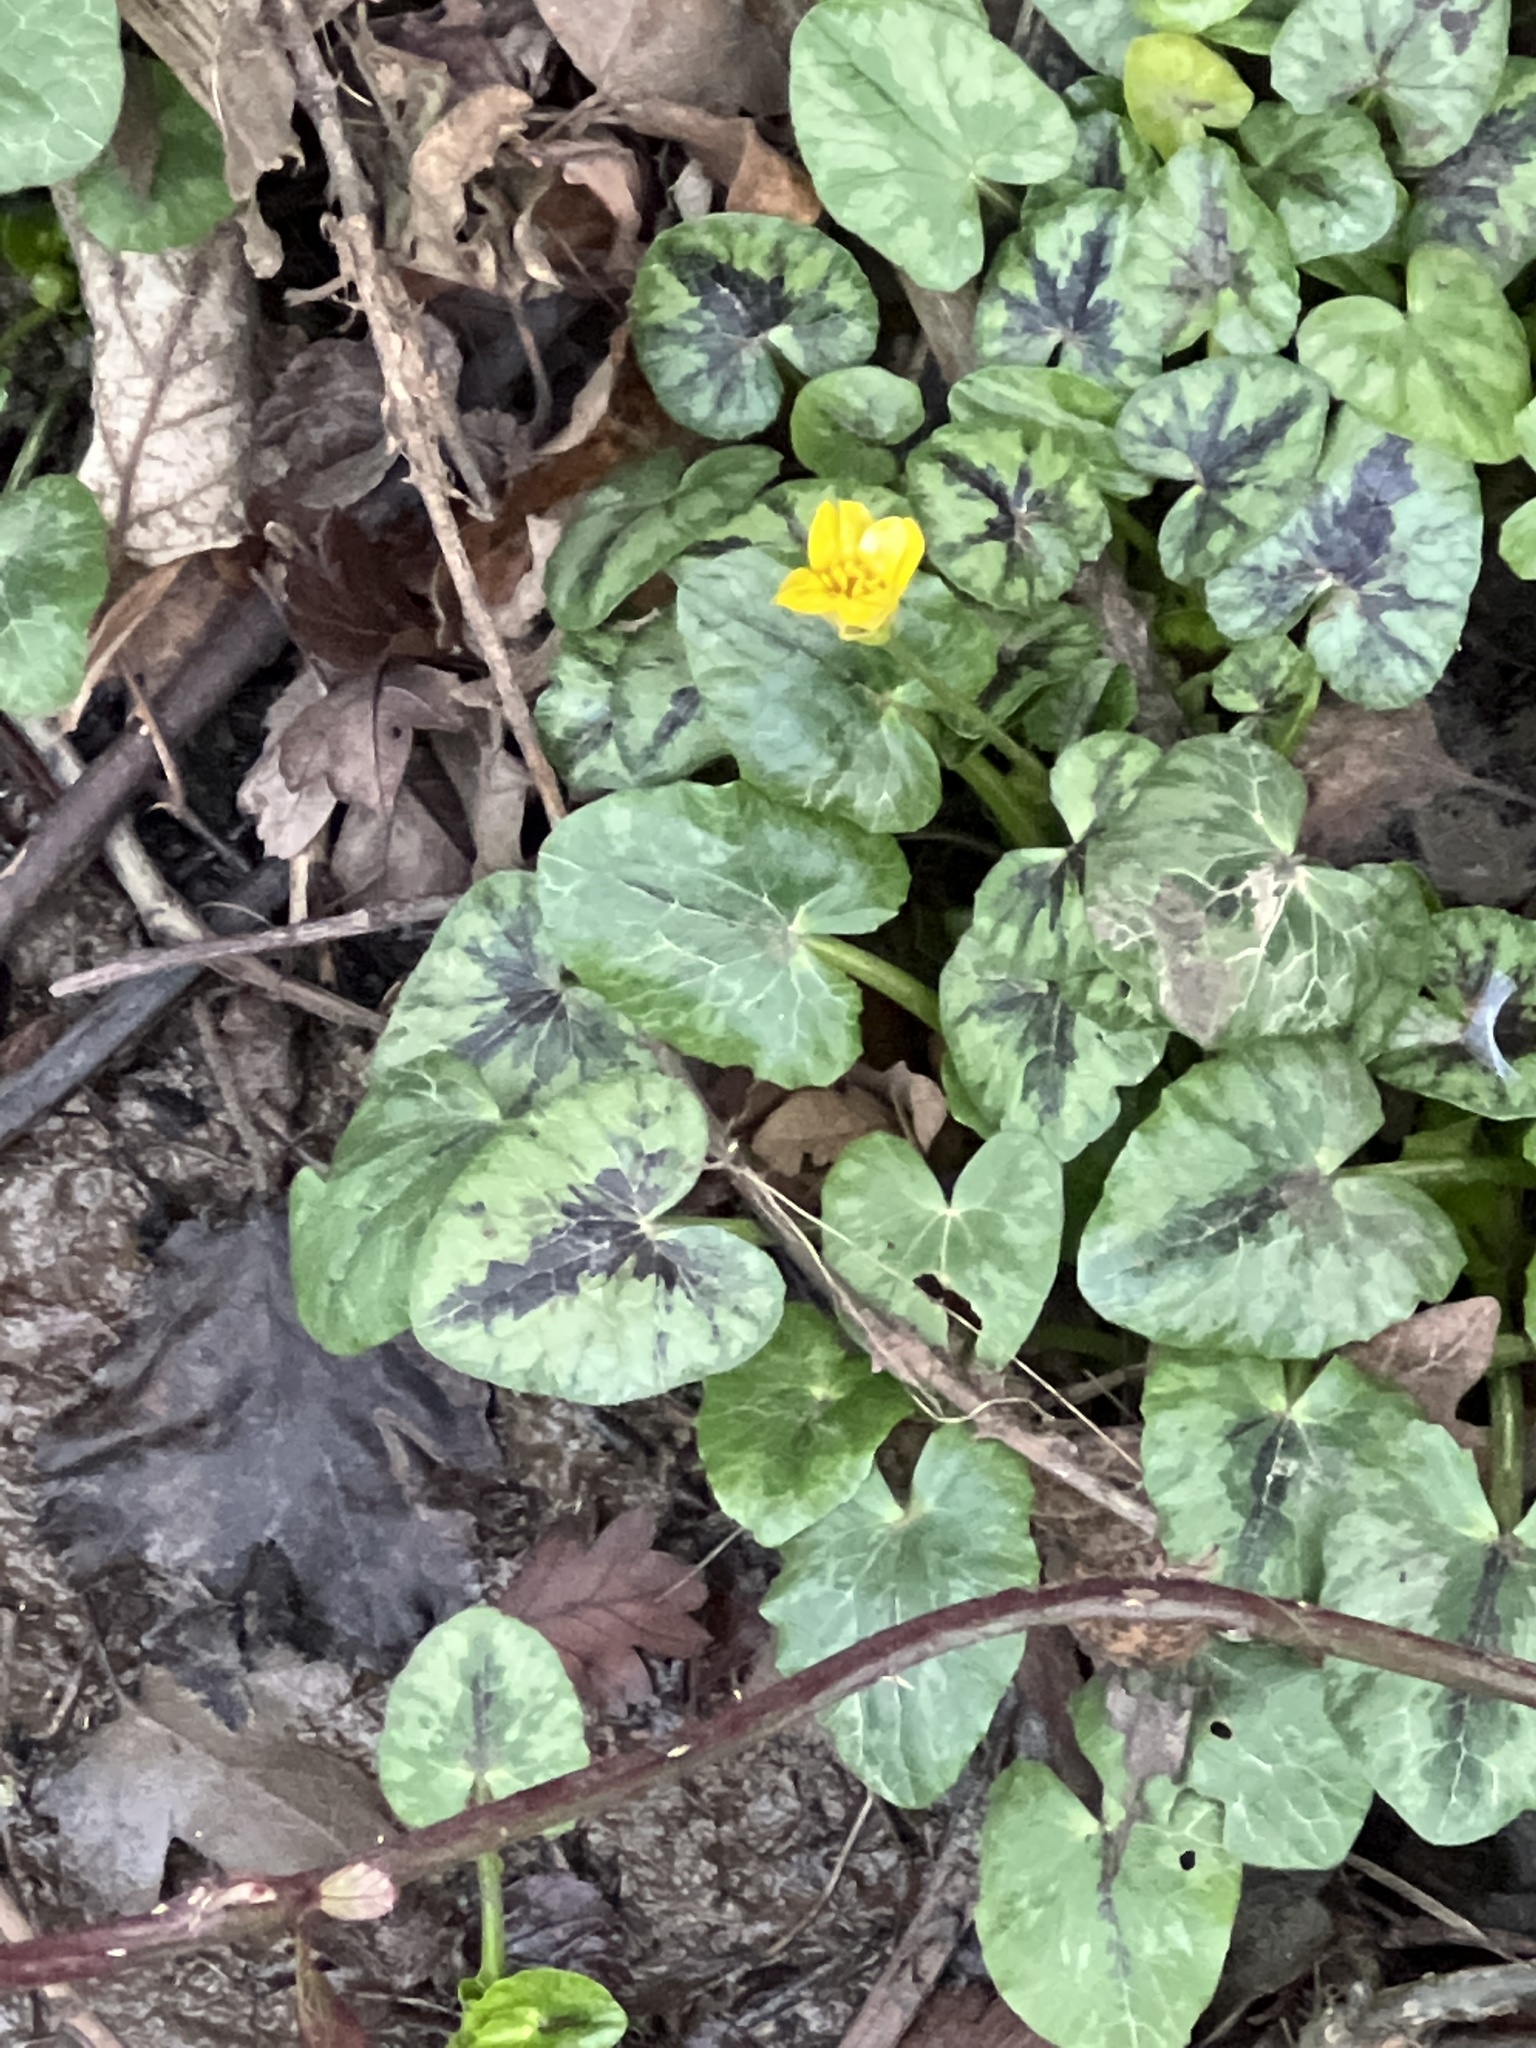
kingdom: Plantae
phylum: Tracheophyta
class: Magnoliopsida
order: Ranunculales
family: Ranunculaceae
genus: Ficaria
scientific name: Ficaria verna
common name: Lesser celandine
